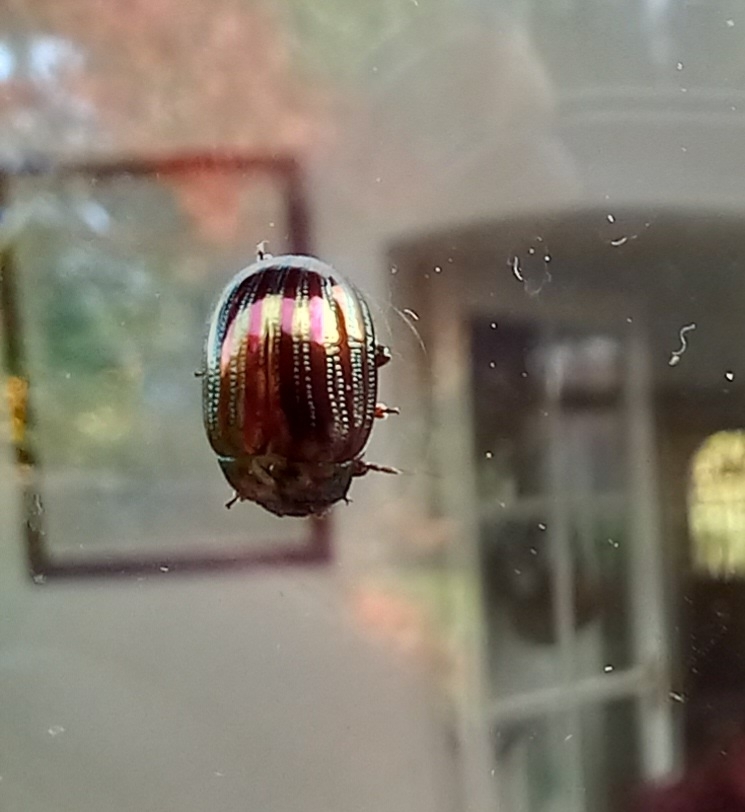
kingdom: Animalia
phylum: Arthropoda
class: Insecta
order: Coleoptera
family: Chrysomelidae
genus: Chrysolina
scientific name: Chrysolina americana
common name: Rosemary beetle
